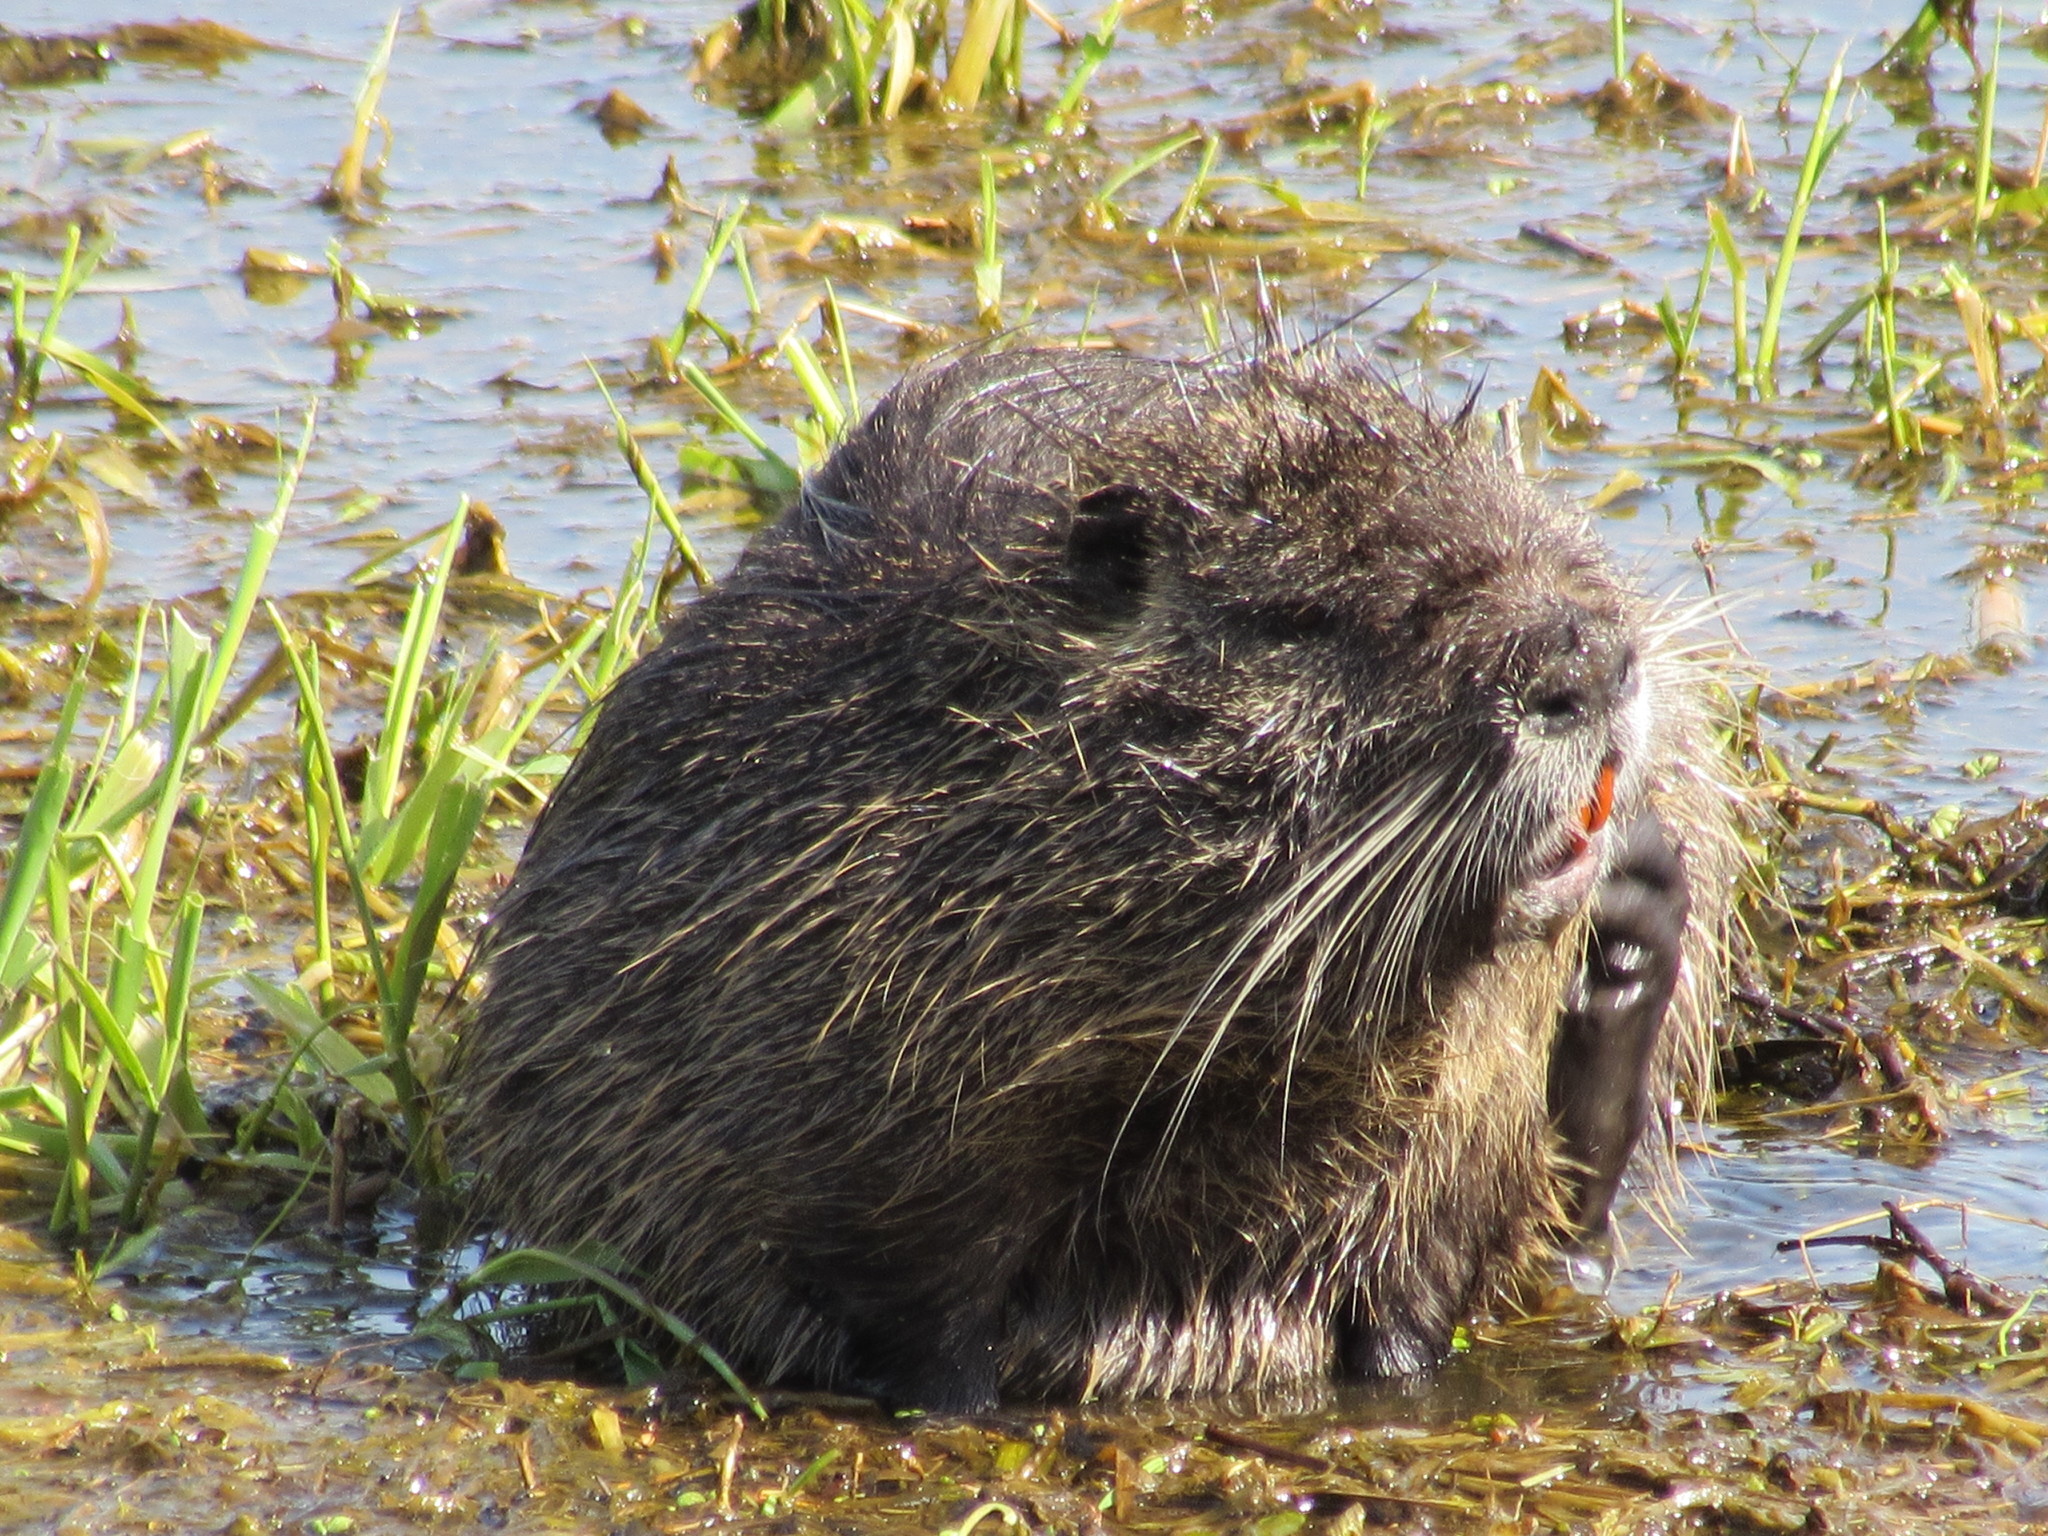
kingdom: Animalia
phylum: Chordata
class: Mammalia
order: Rodentia
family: Myocastoridae
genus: Myocastor
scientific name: Myocastor coypus
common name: Coypu
